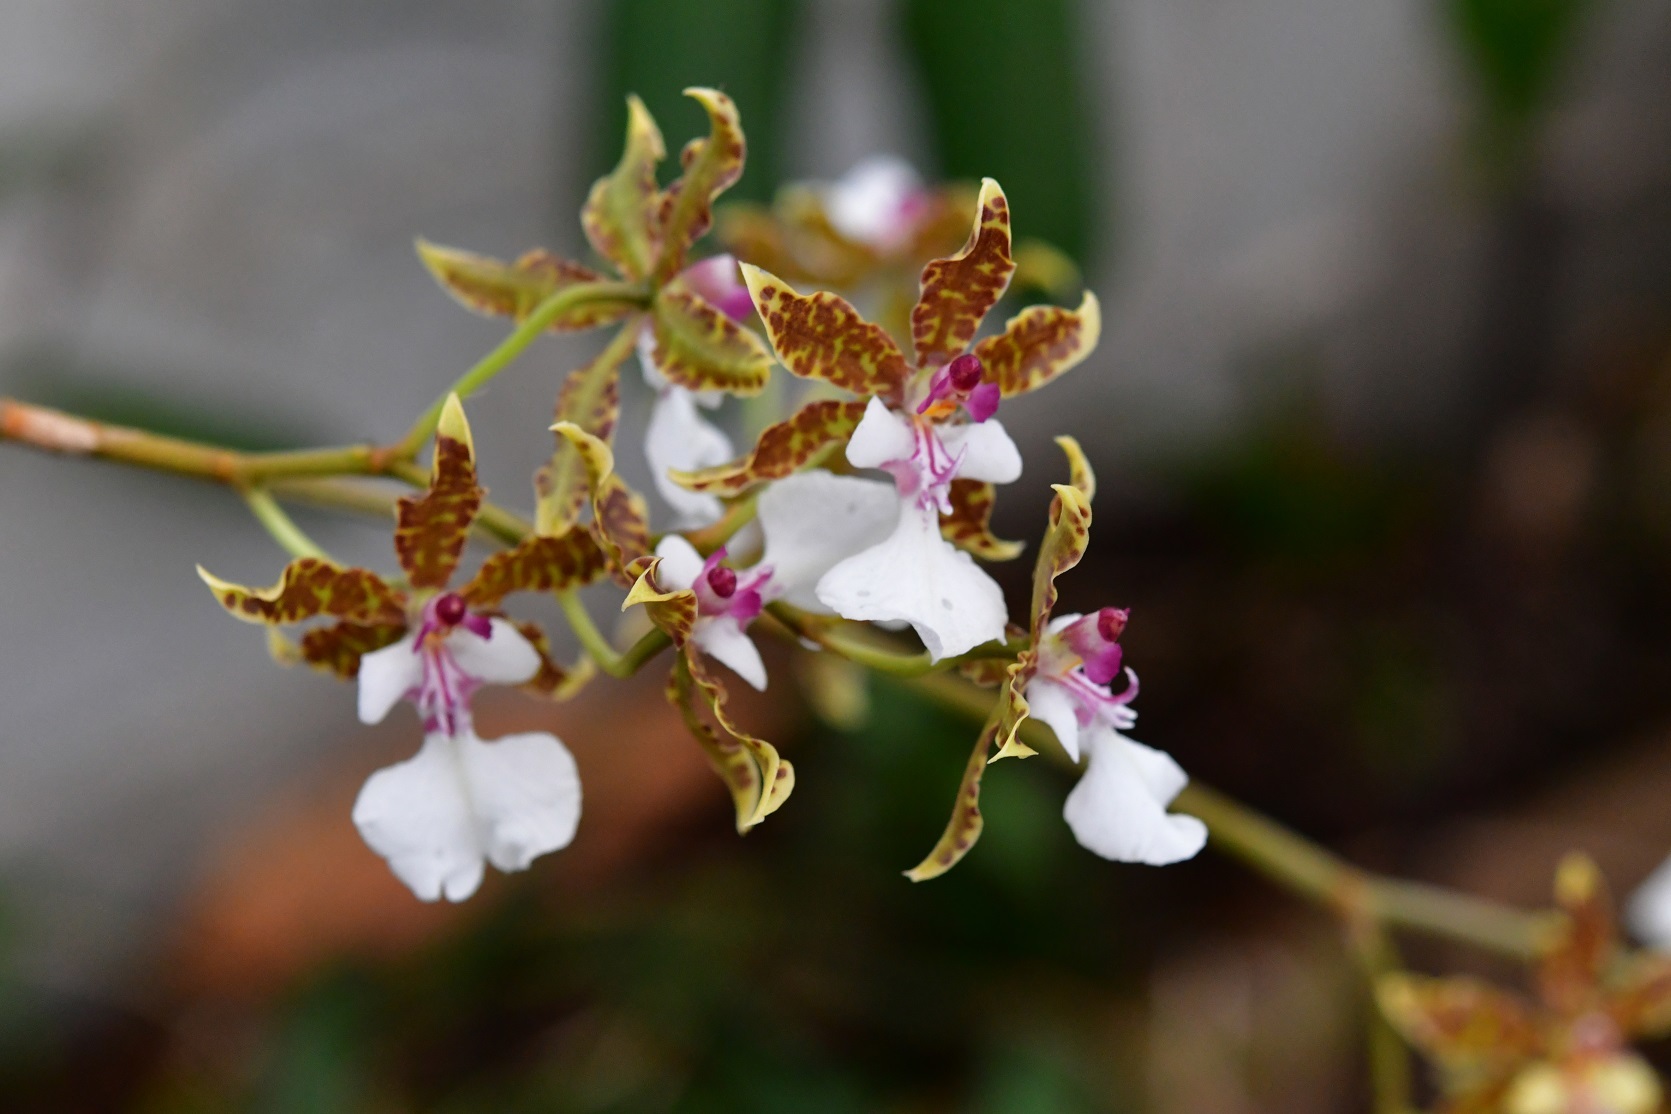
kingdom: Plantae
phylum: Tracheophyta
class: Liliopsida
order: Asparagales
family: Orchidaceae
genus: Oncidium
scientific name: Oncidium leucochilum
